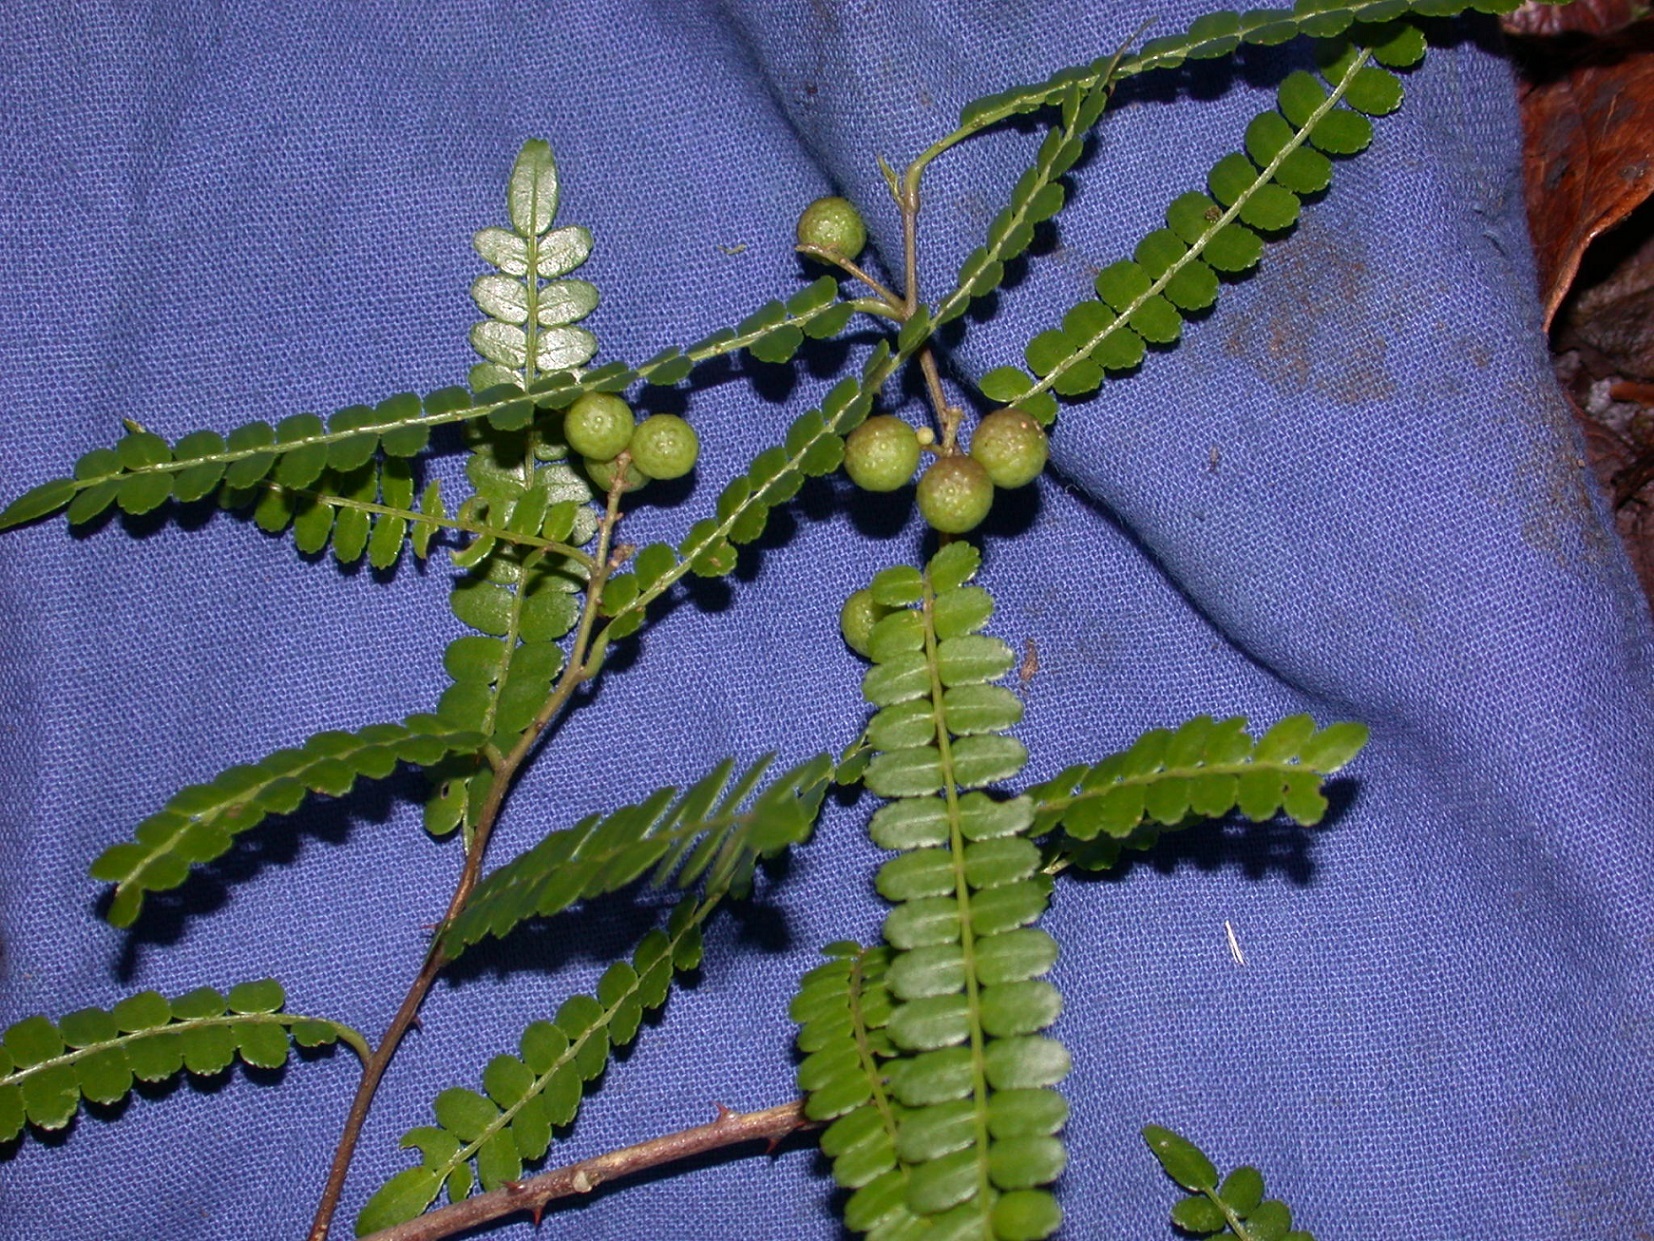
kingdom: Plantae
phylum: Tracheophyta
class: Magnoliopsida
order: Sapindales
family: Rutaceae
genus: Zanthoxylum
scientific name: Zanthoxylum foliolosum
